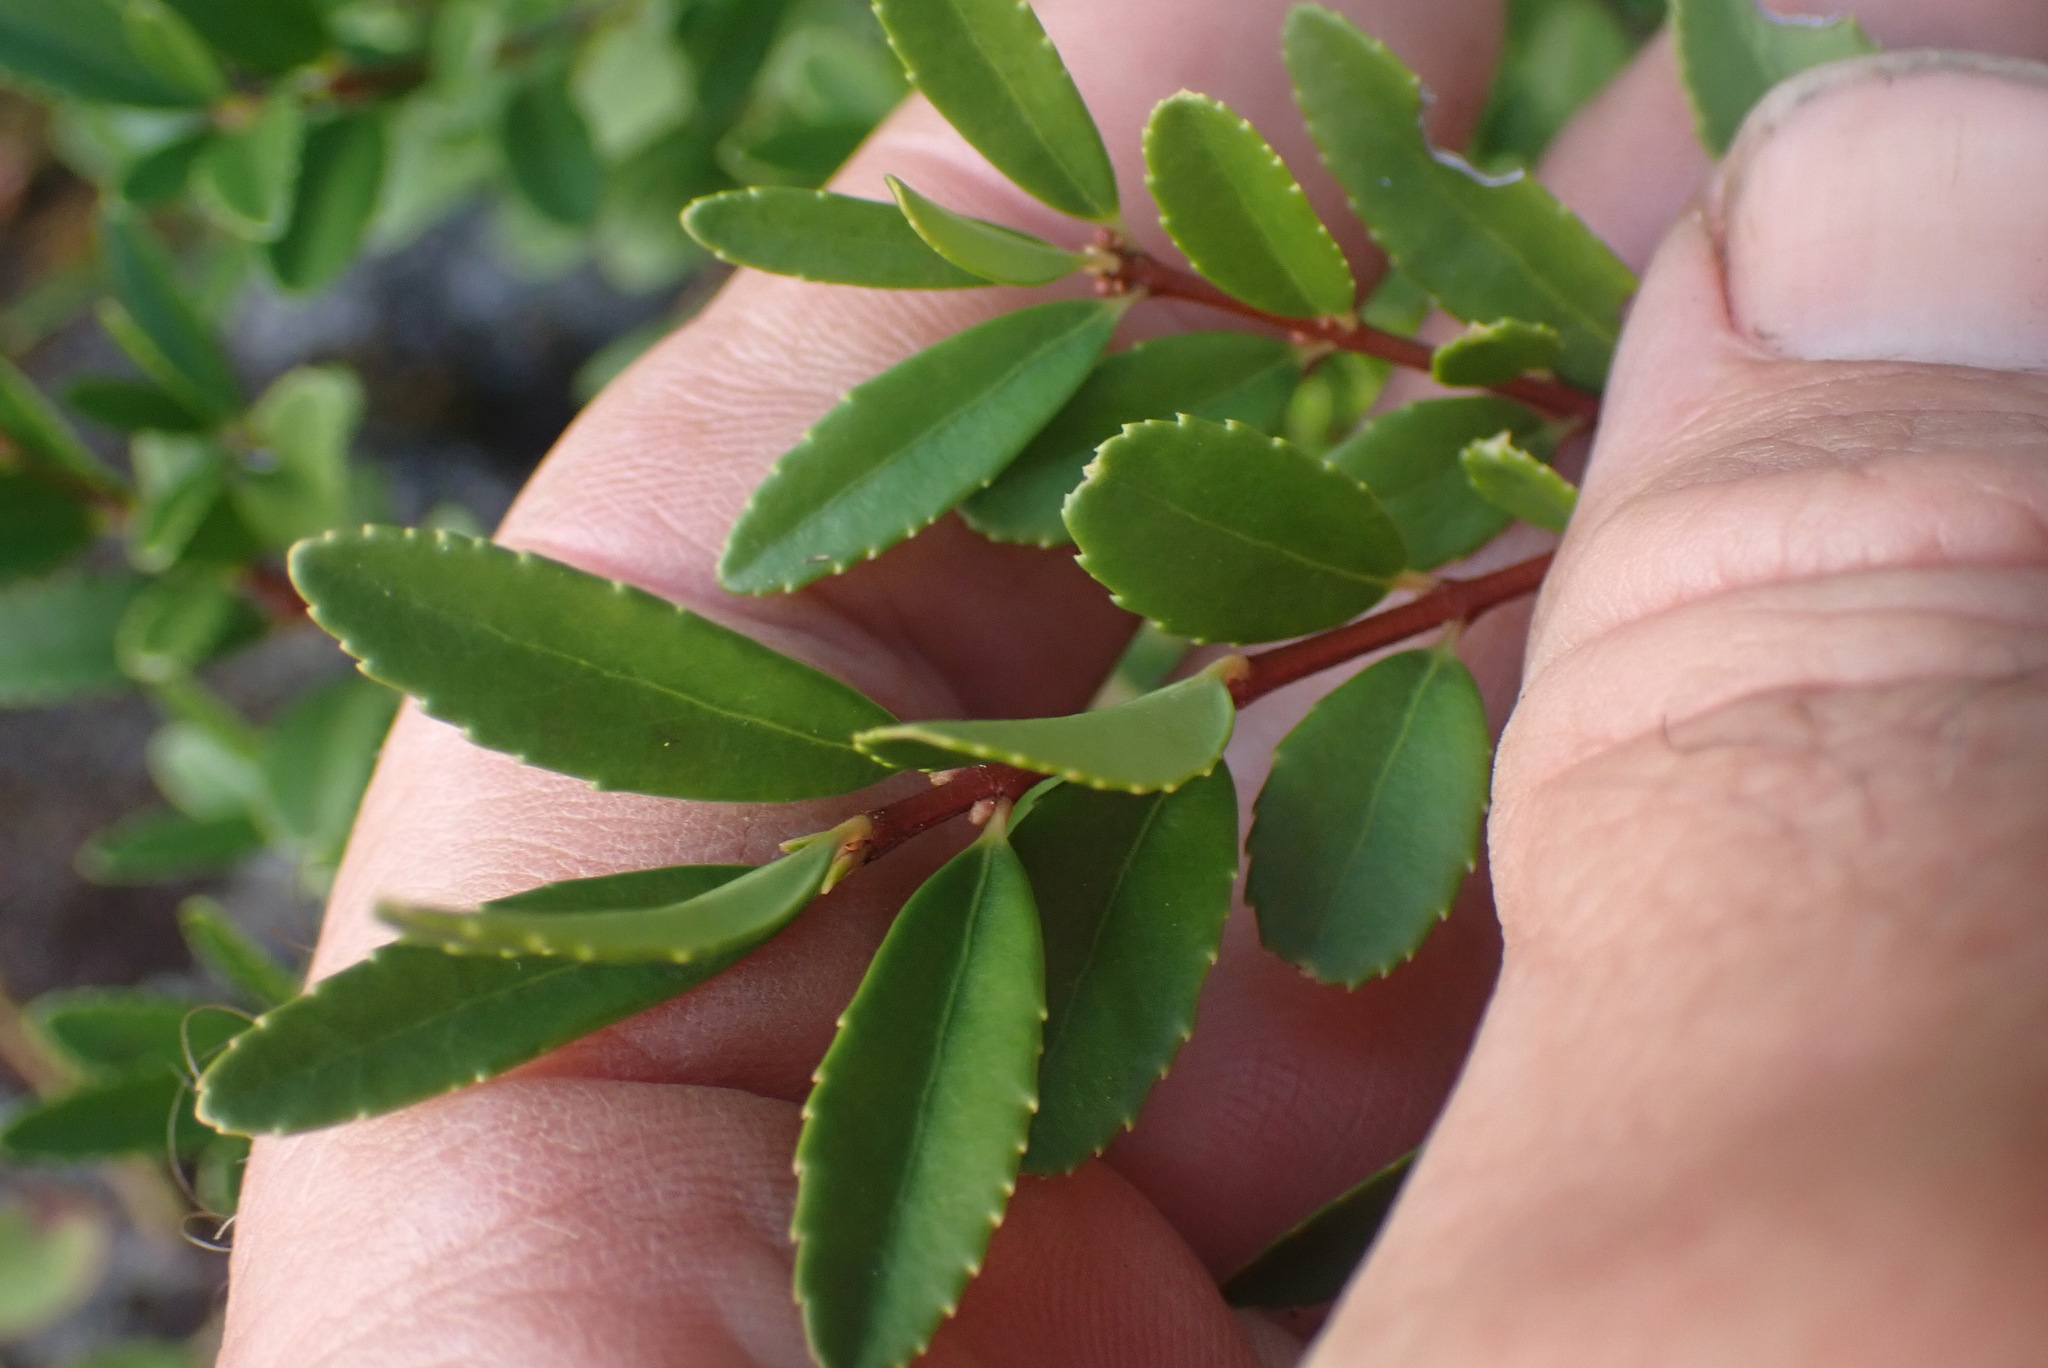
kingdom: Plantae
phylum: Tracheophyta
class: Magnoliopsida
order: Celastrales
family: Celastraceae
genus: Paxistima
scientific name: Paxistima myrsinites
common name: Mountain-lover
